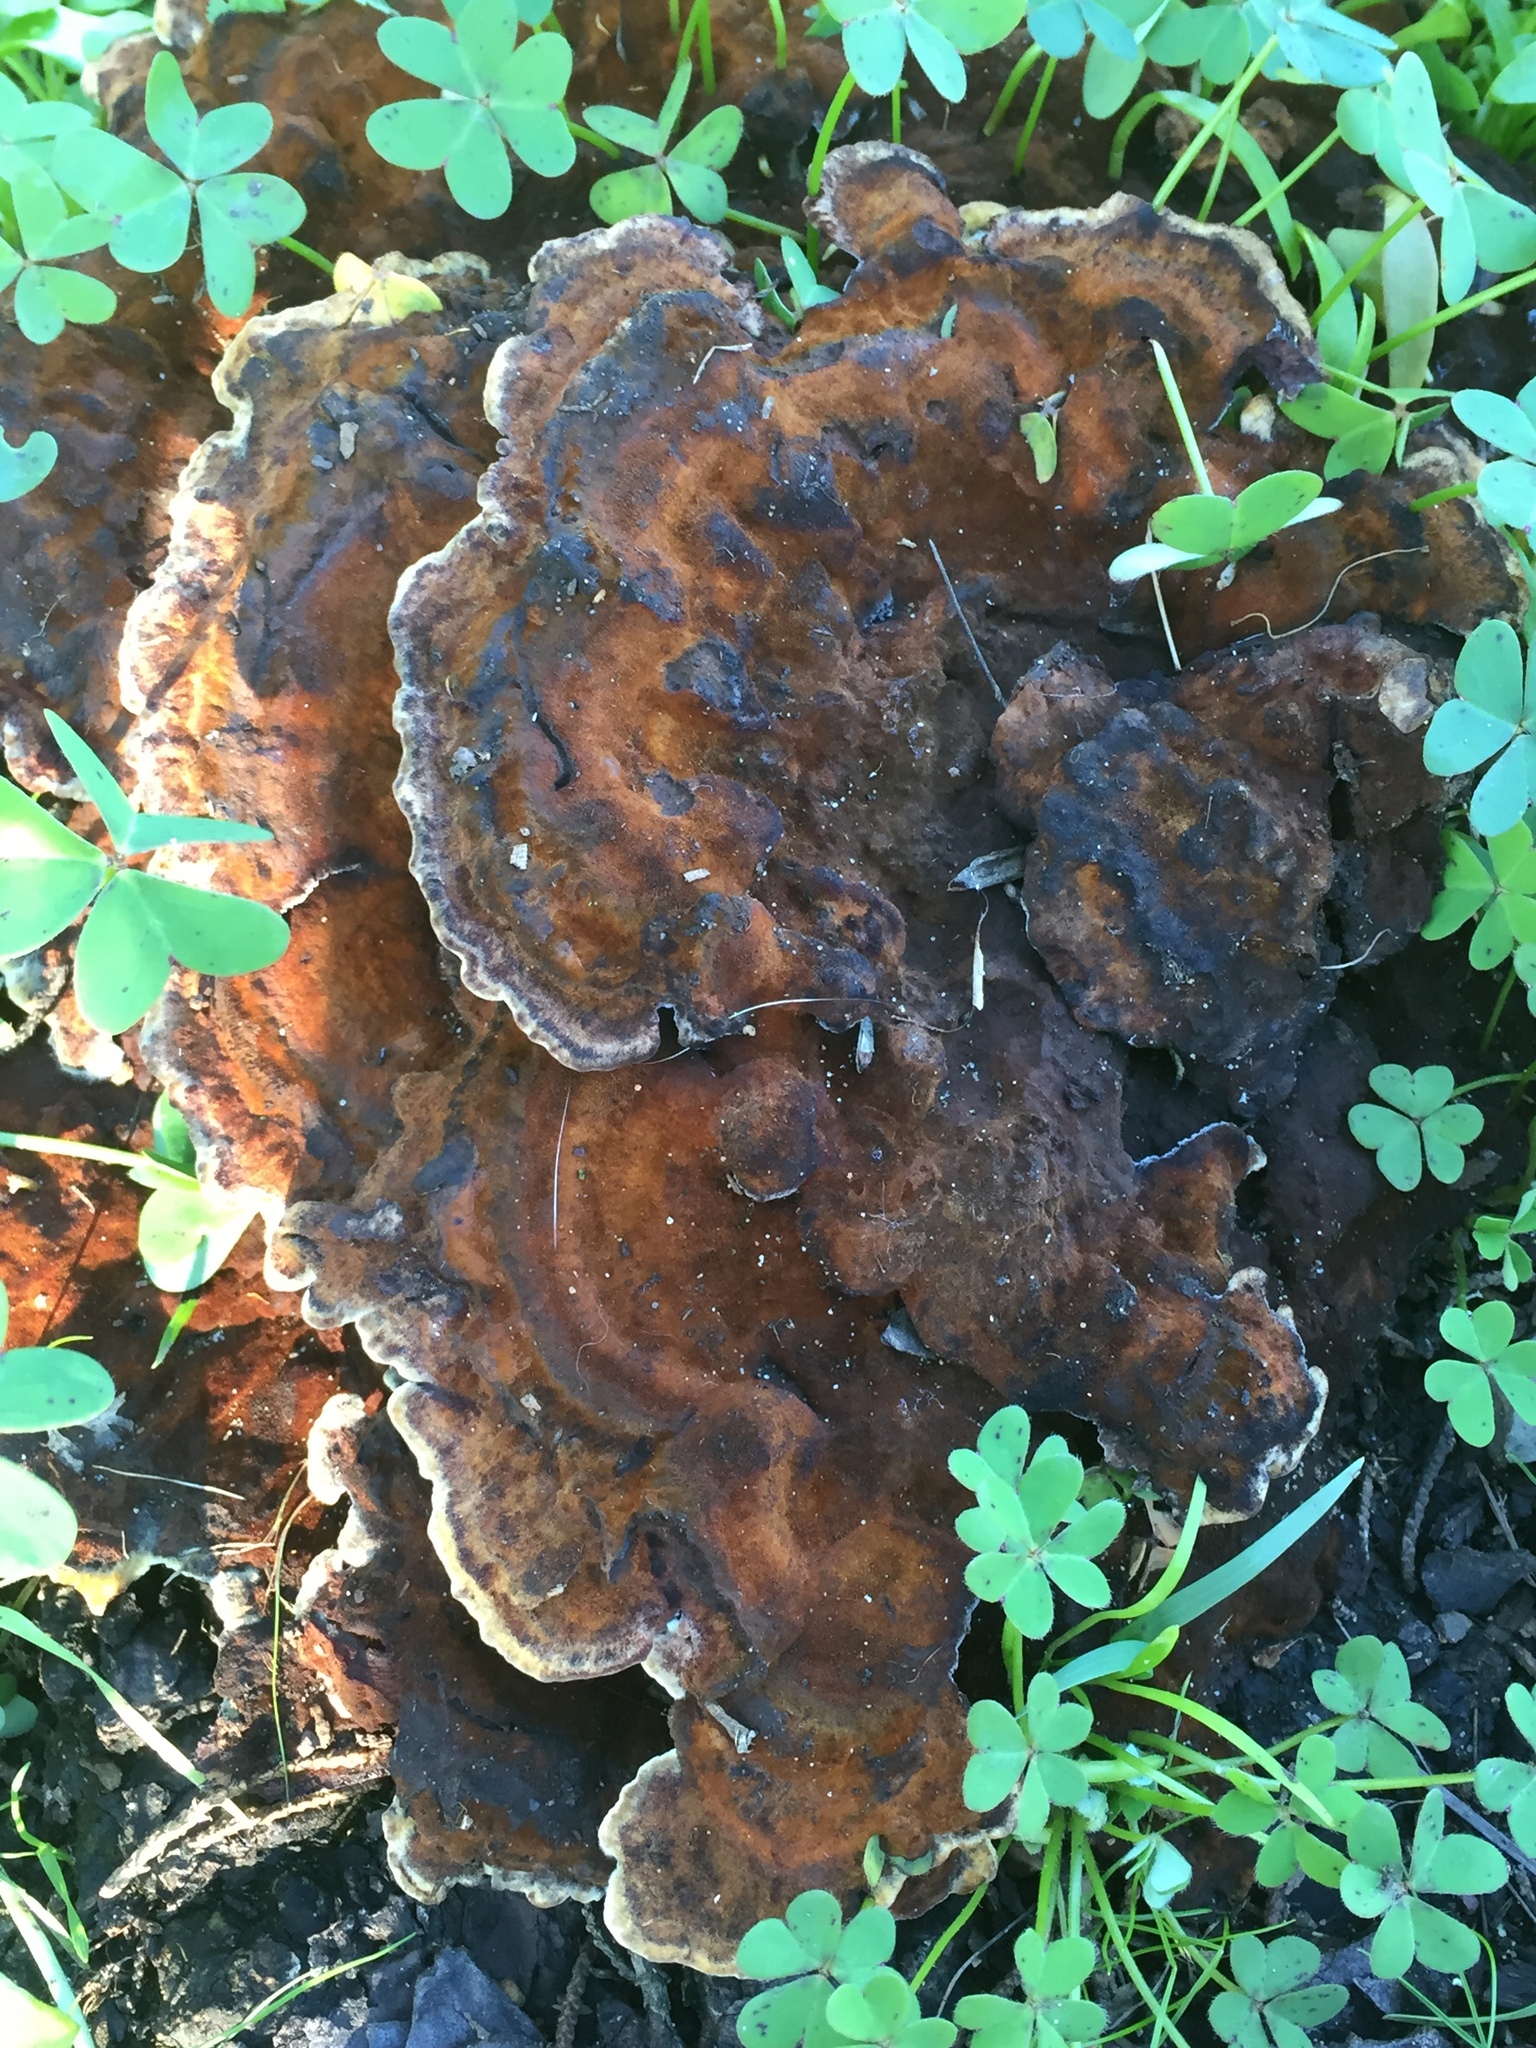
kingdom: Fungi
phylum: Basidiomycota
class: Agaricomycetes
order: Polyporales
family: Laetiporaceae
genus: Phaeolus
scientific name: Phaeolus schweinitzii
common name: Dyer's mazegill
